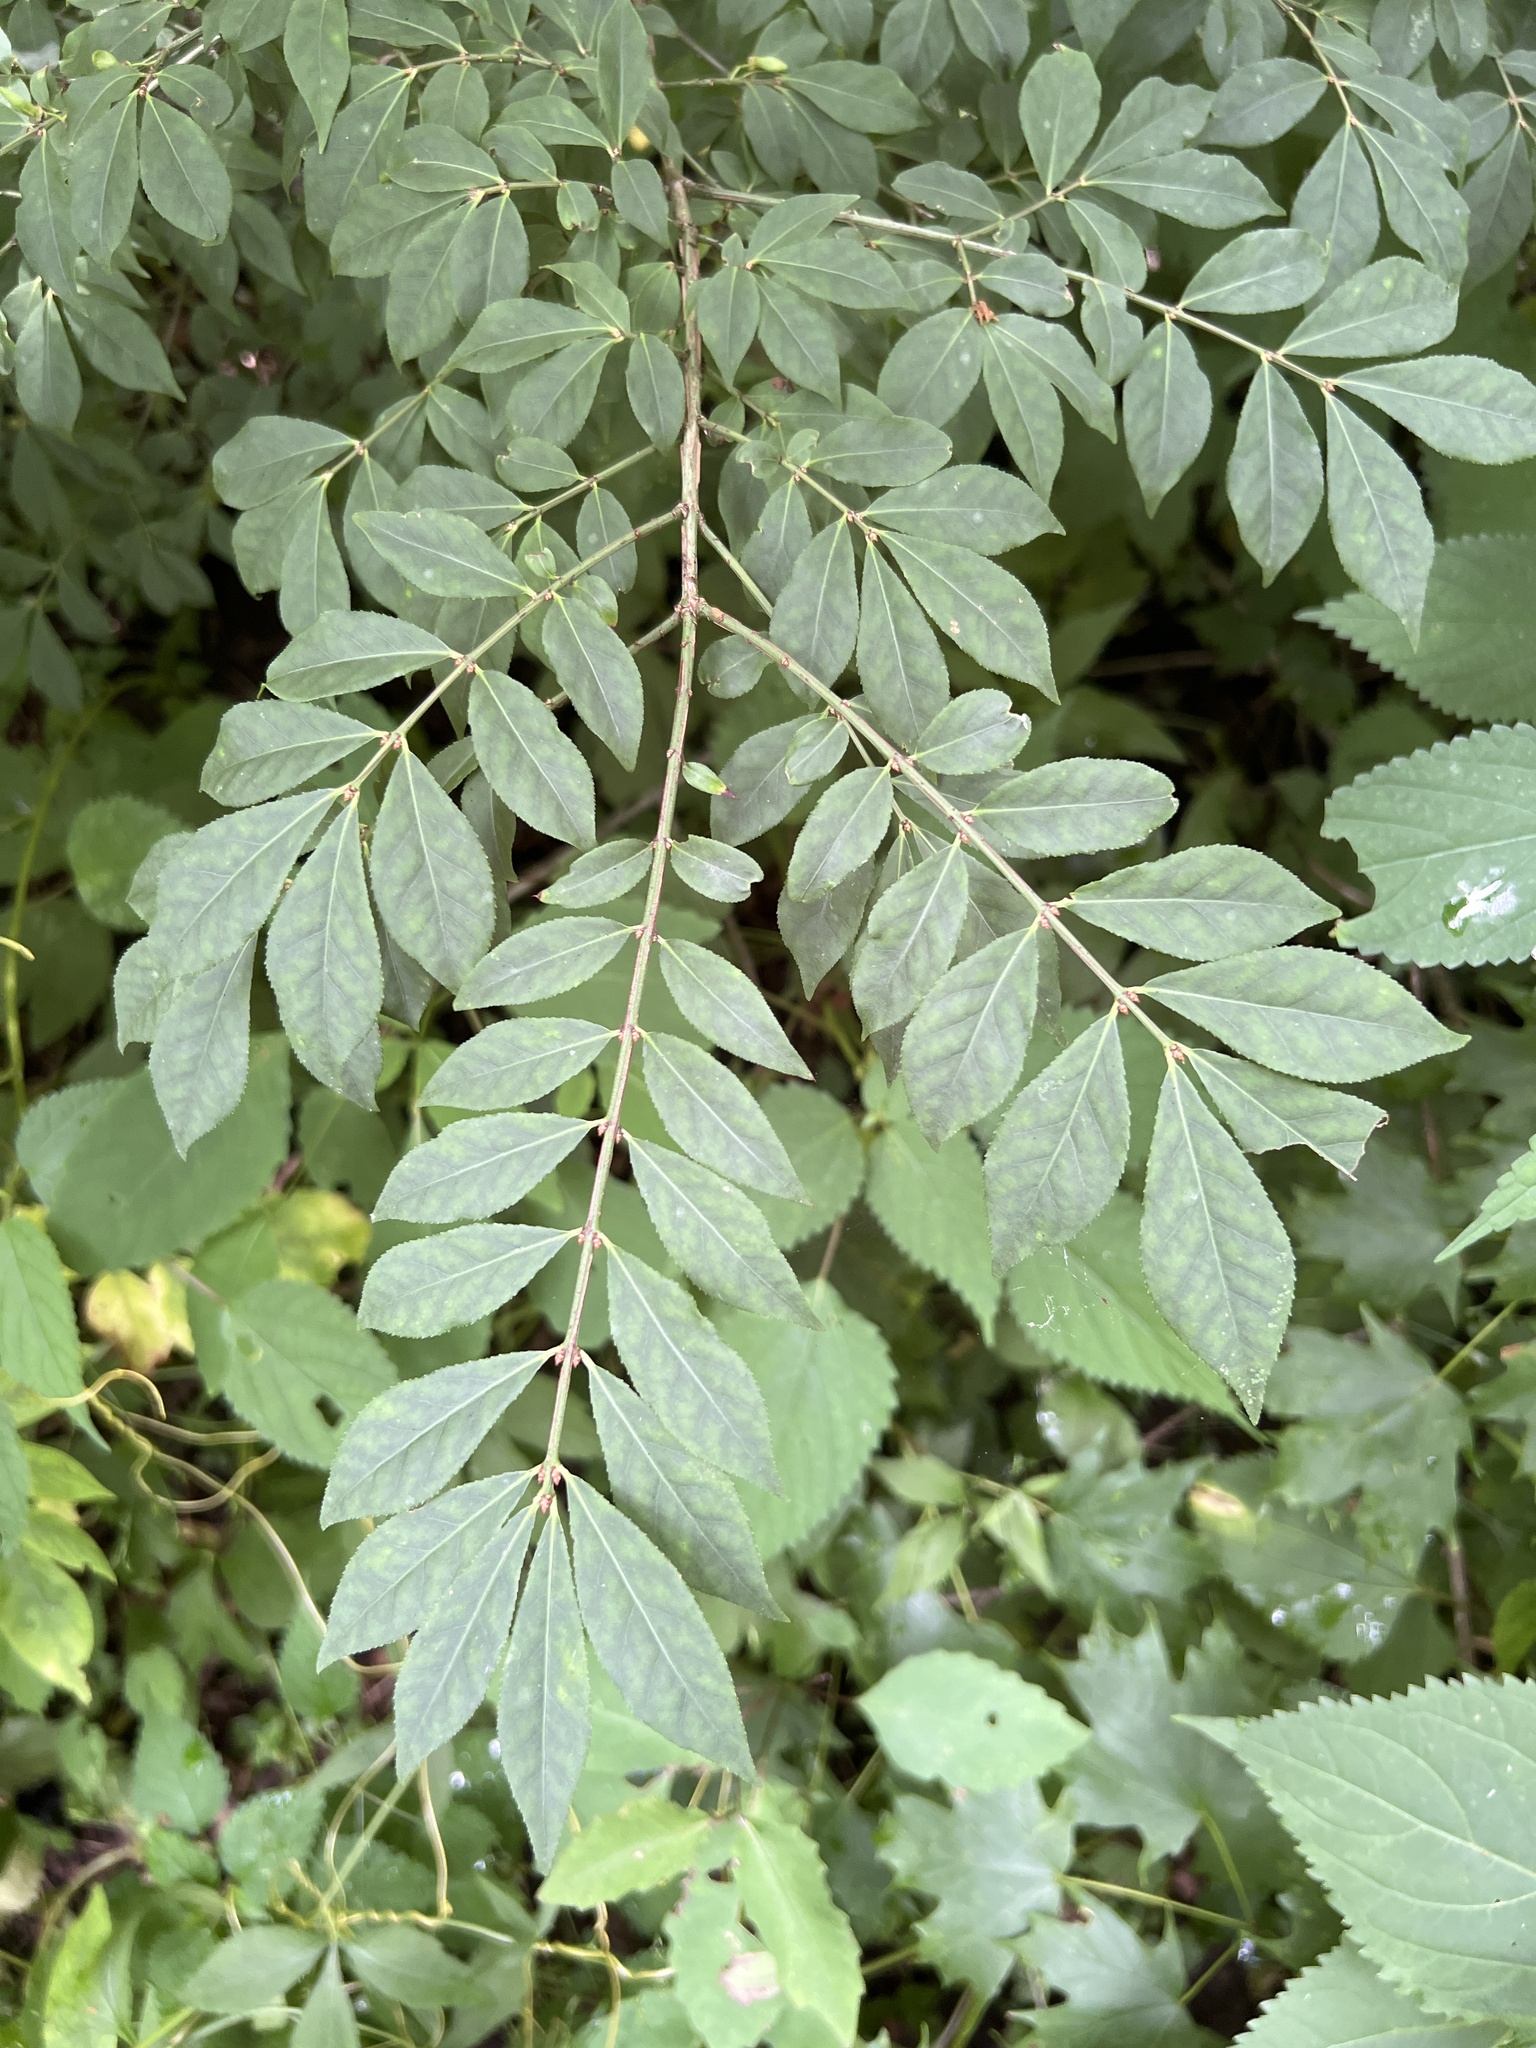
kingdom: Plantae
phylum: Tracheophyta
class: Magnoliopsida
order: Celastrales
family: Celastraceae
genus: Euonymus
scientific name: Euonymus alatus
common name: Winged euonymus
